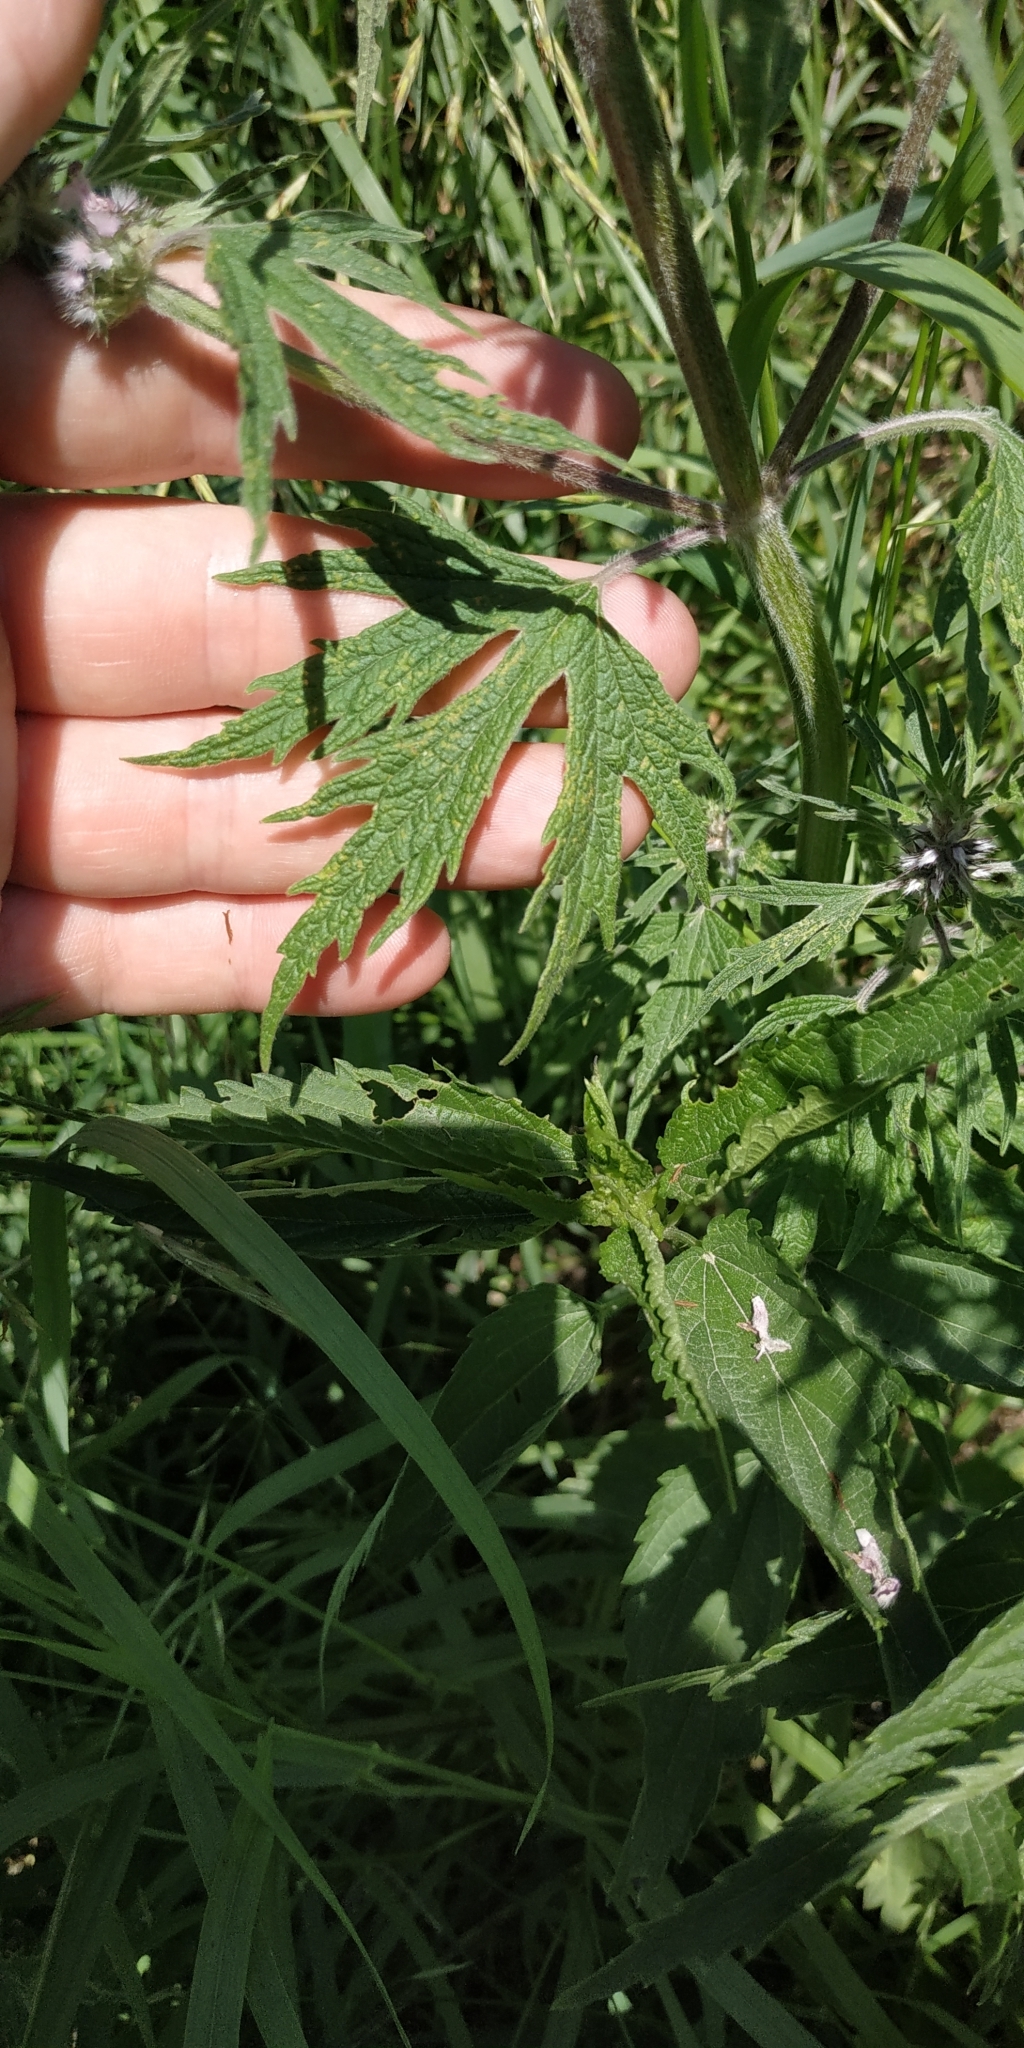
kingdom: Plantae
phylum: Tracheophyta
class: Magnoliopsida
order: Lamiales
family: Lamiaceae
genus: Leonurus
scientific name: Leonurus quinquelobatus
